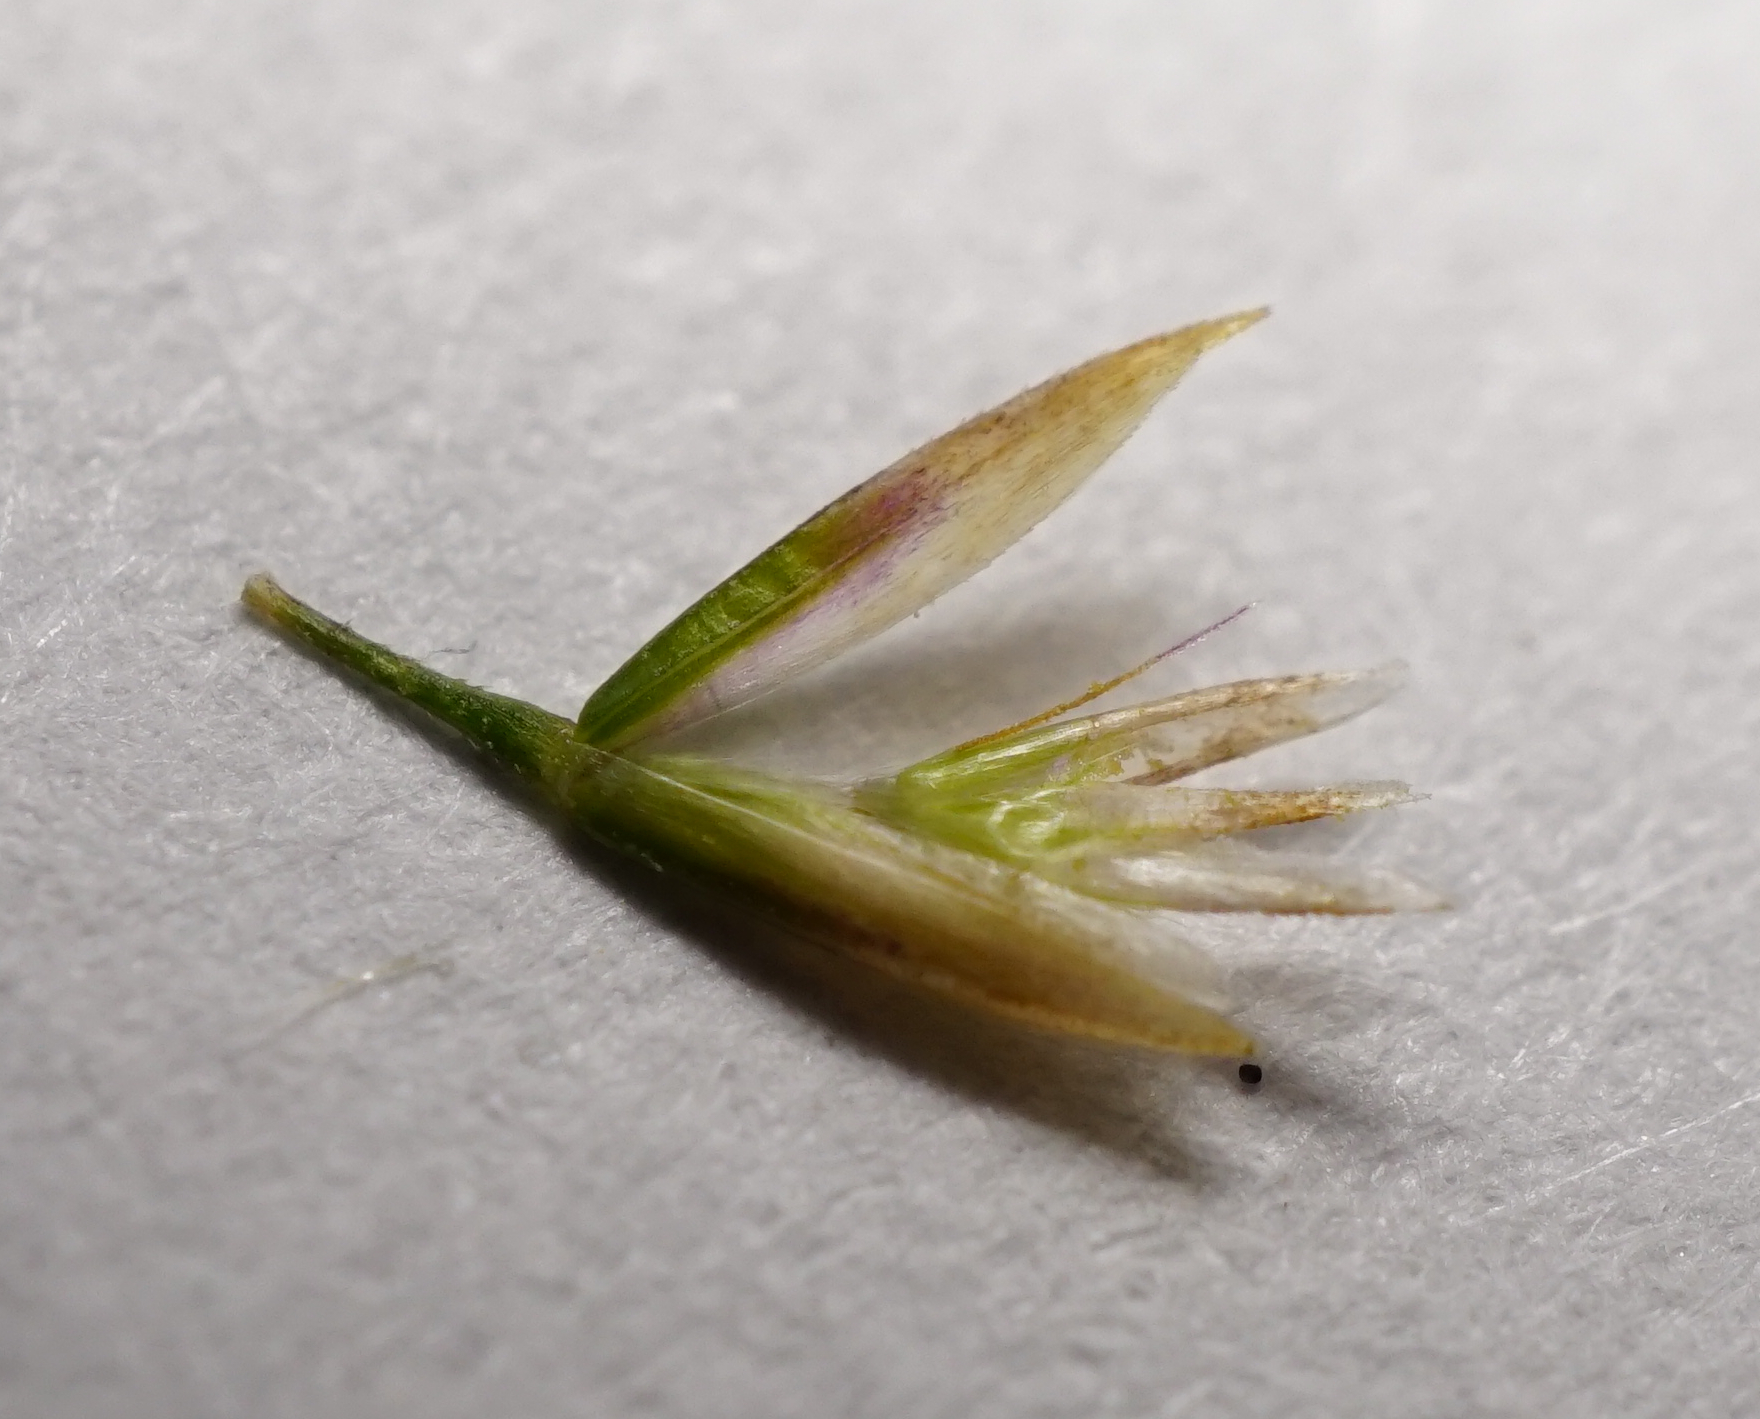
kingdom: Plantae
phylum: Tracheophyta
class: Liliopsida
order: Poales
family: Poaceae
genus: Deschampsia
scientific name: Deschampsia cespitosa
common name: Tufted hair-grass
